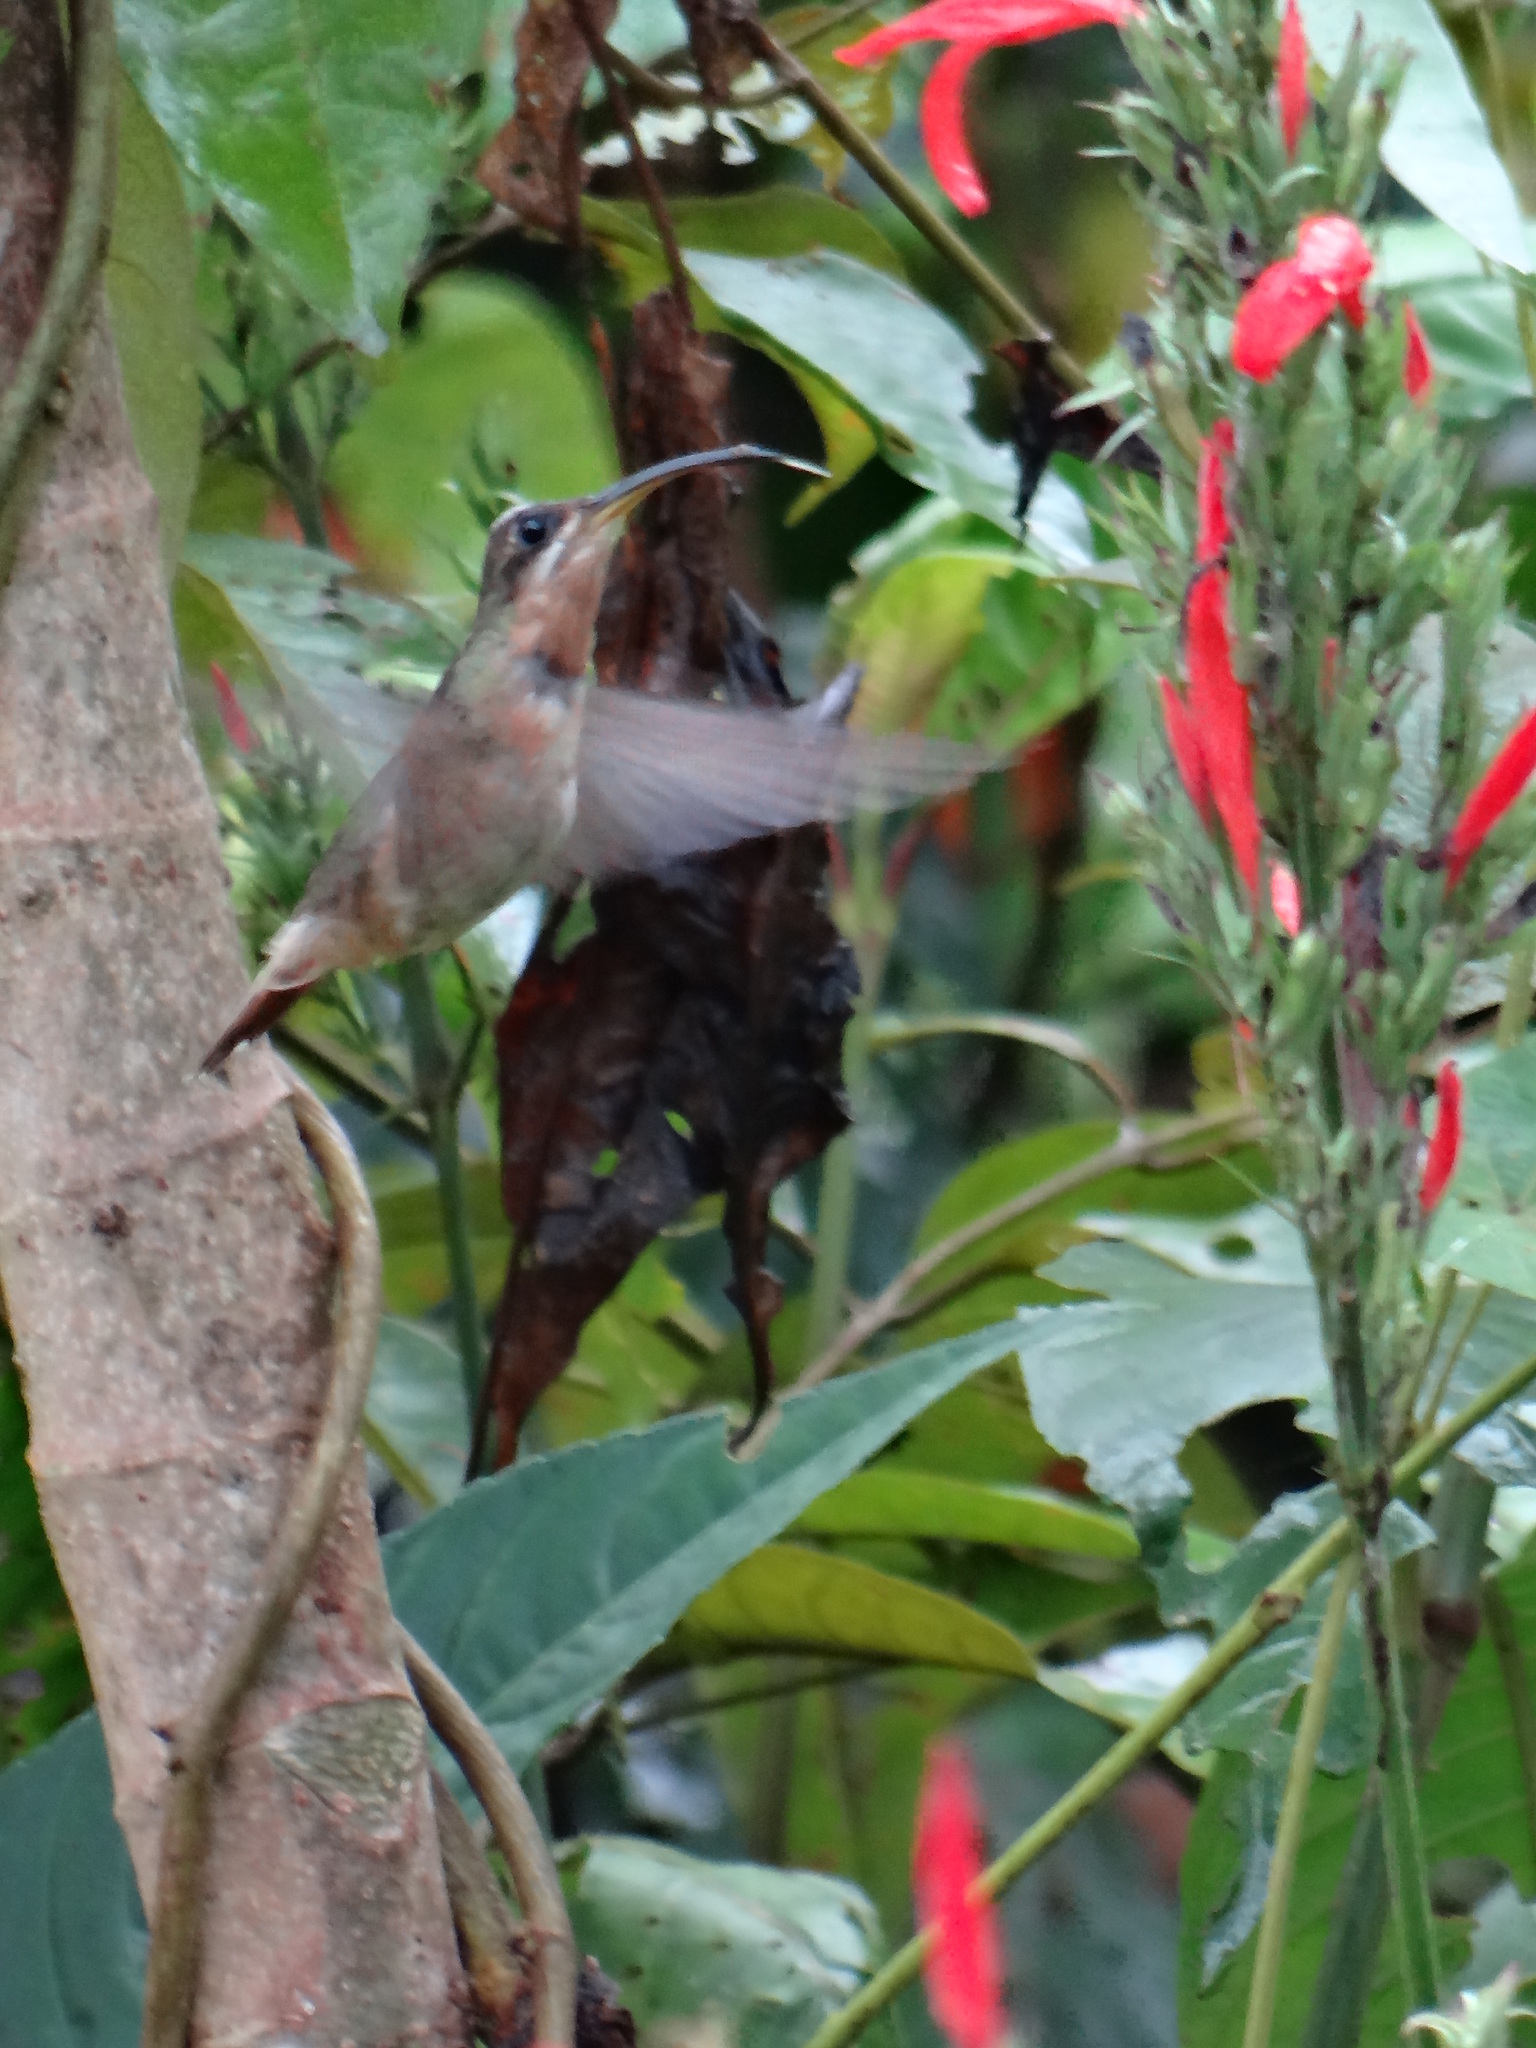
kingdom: Animalia
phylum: Chordata
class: Aves
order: Apodiformes
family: Trochilidae
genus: Glaucis
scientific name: Glaucis hirsutus
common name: Rufous-breasted hermit
